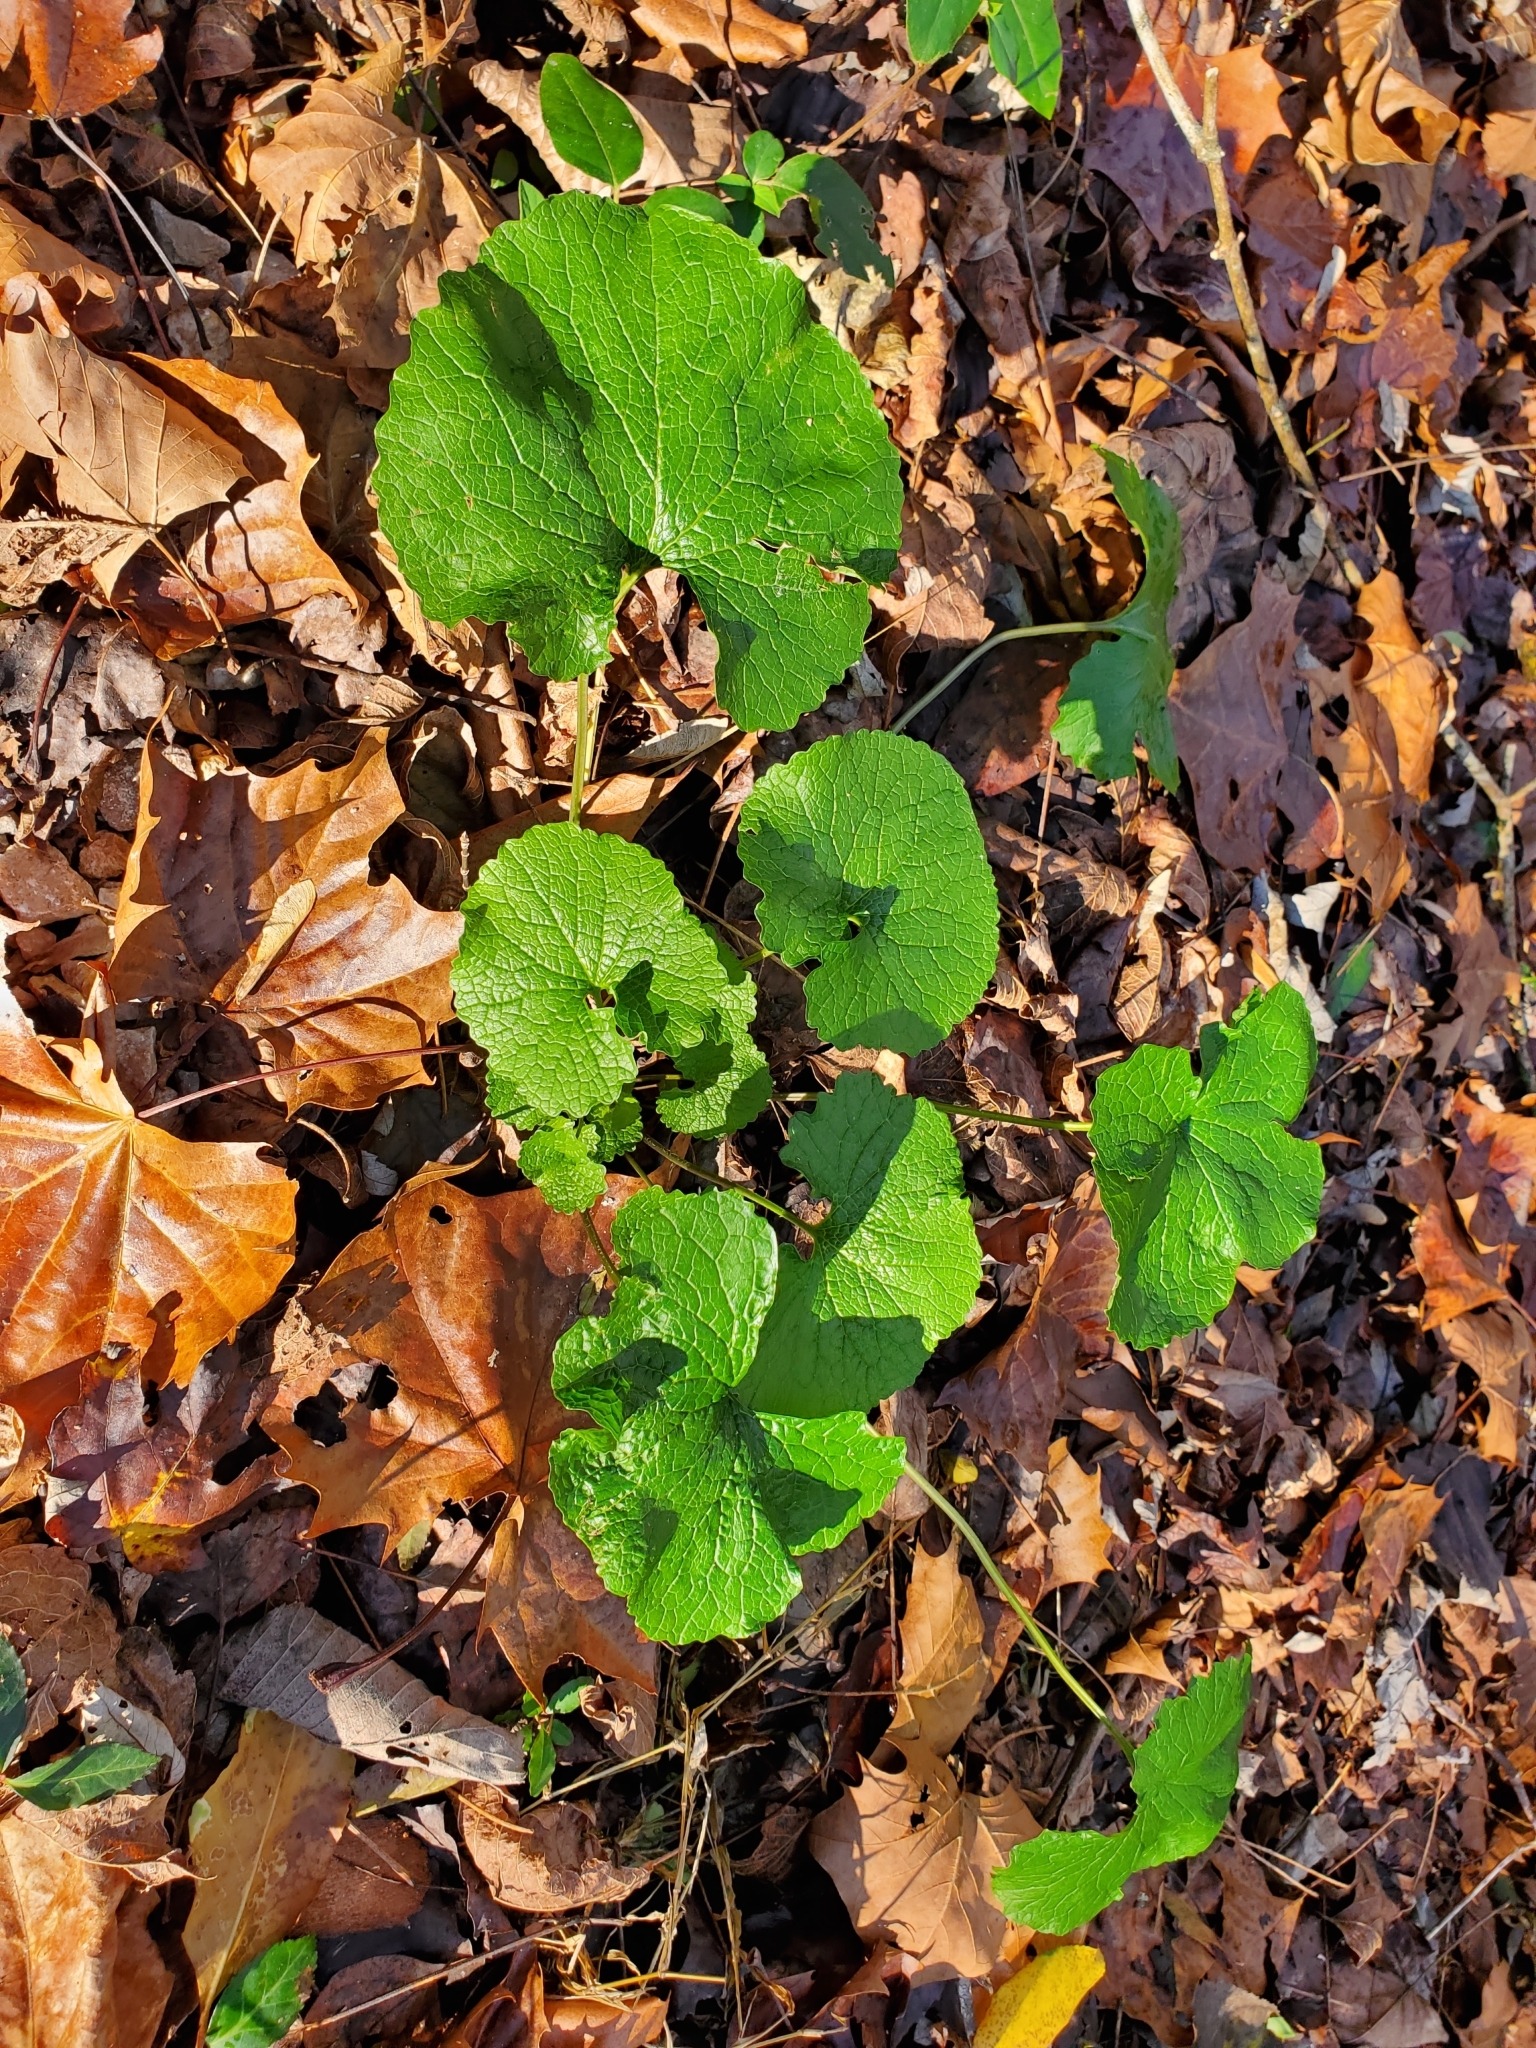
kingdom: Plantae
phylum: Tracheophyta
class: Magnoliopsida
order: Brassicales
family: Brassicaceae
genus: Alliaria
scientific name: Alliaria petiolata
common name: Garlic mustard
